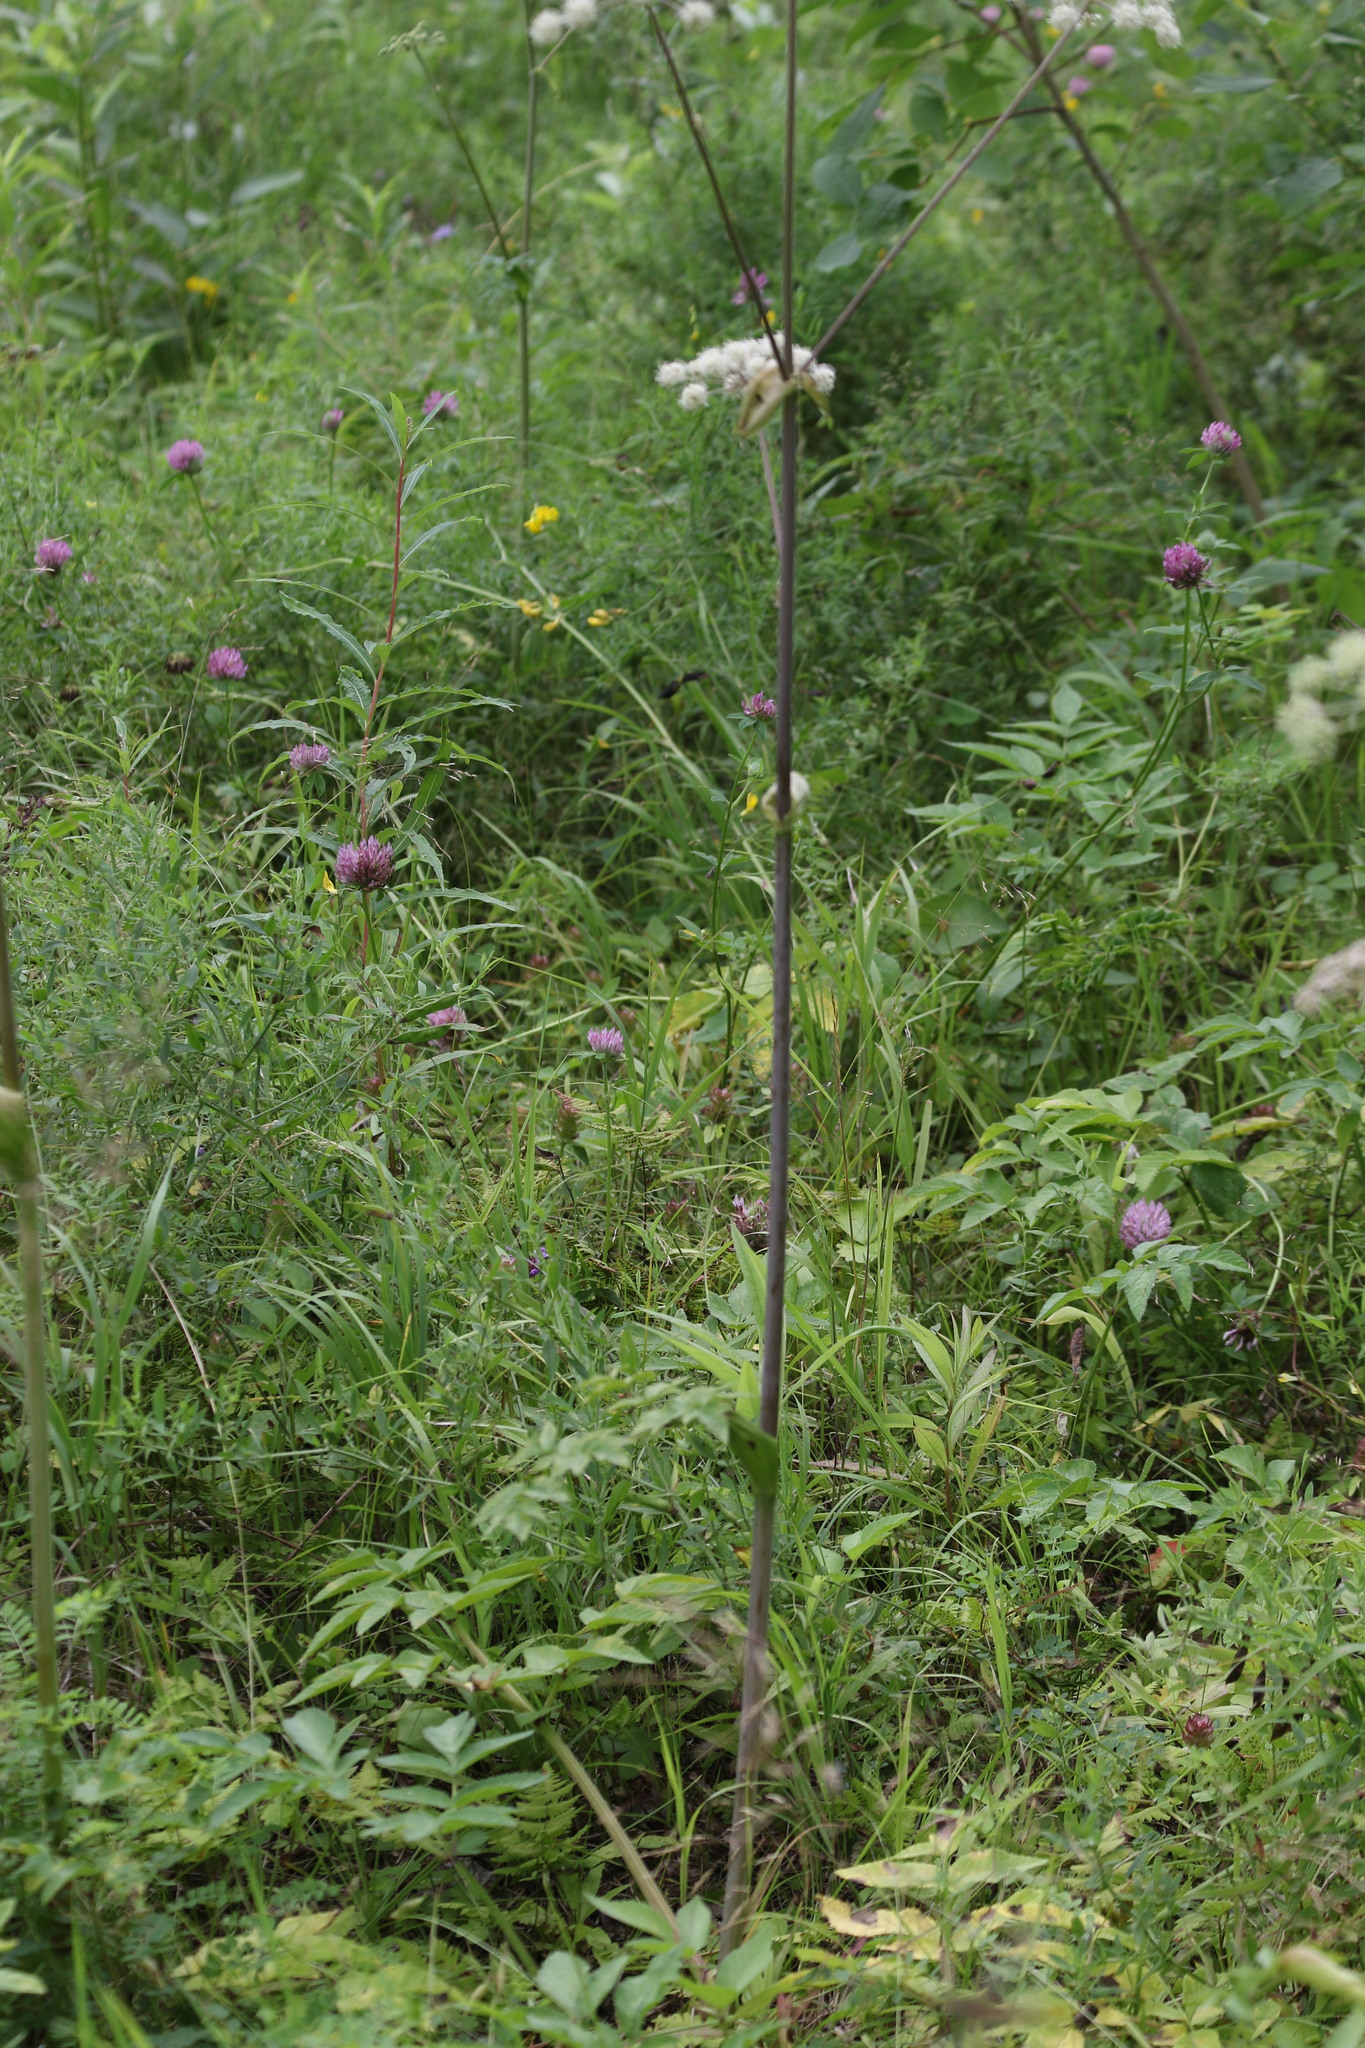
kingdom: Plantae
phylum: Tracheophyta
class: Magnoliopsida
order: Apiales
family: Apiaceae
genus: Angelica
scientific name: Angelica sylvestris
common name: Wild angelica
